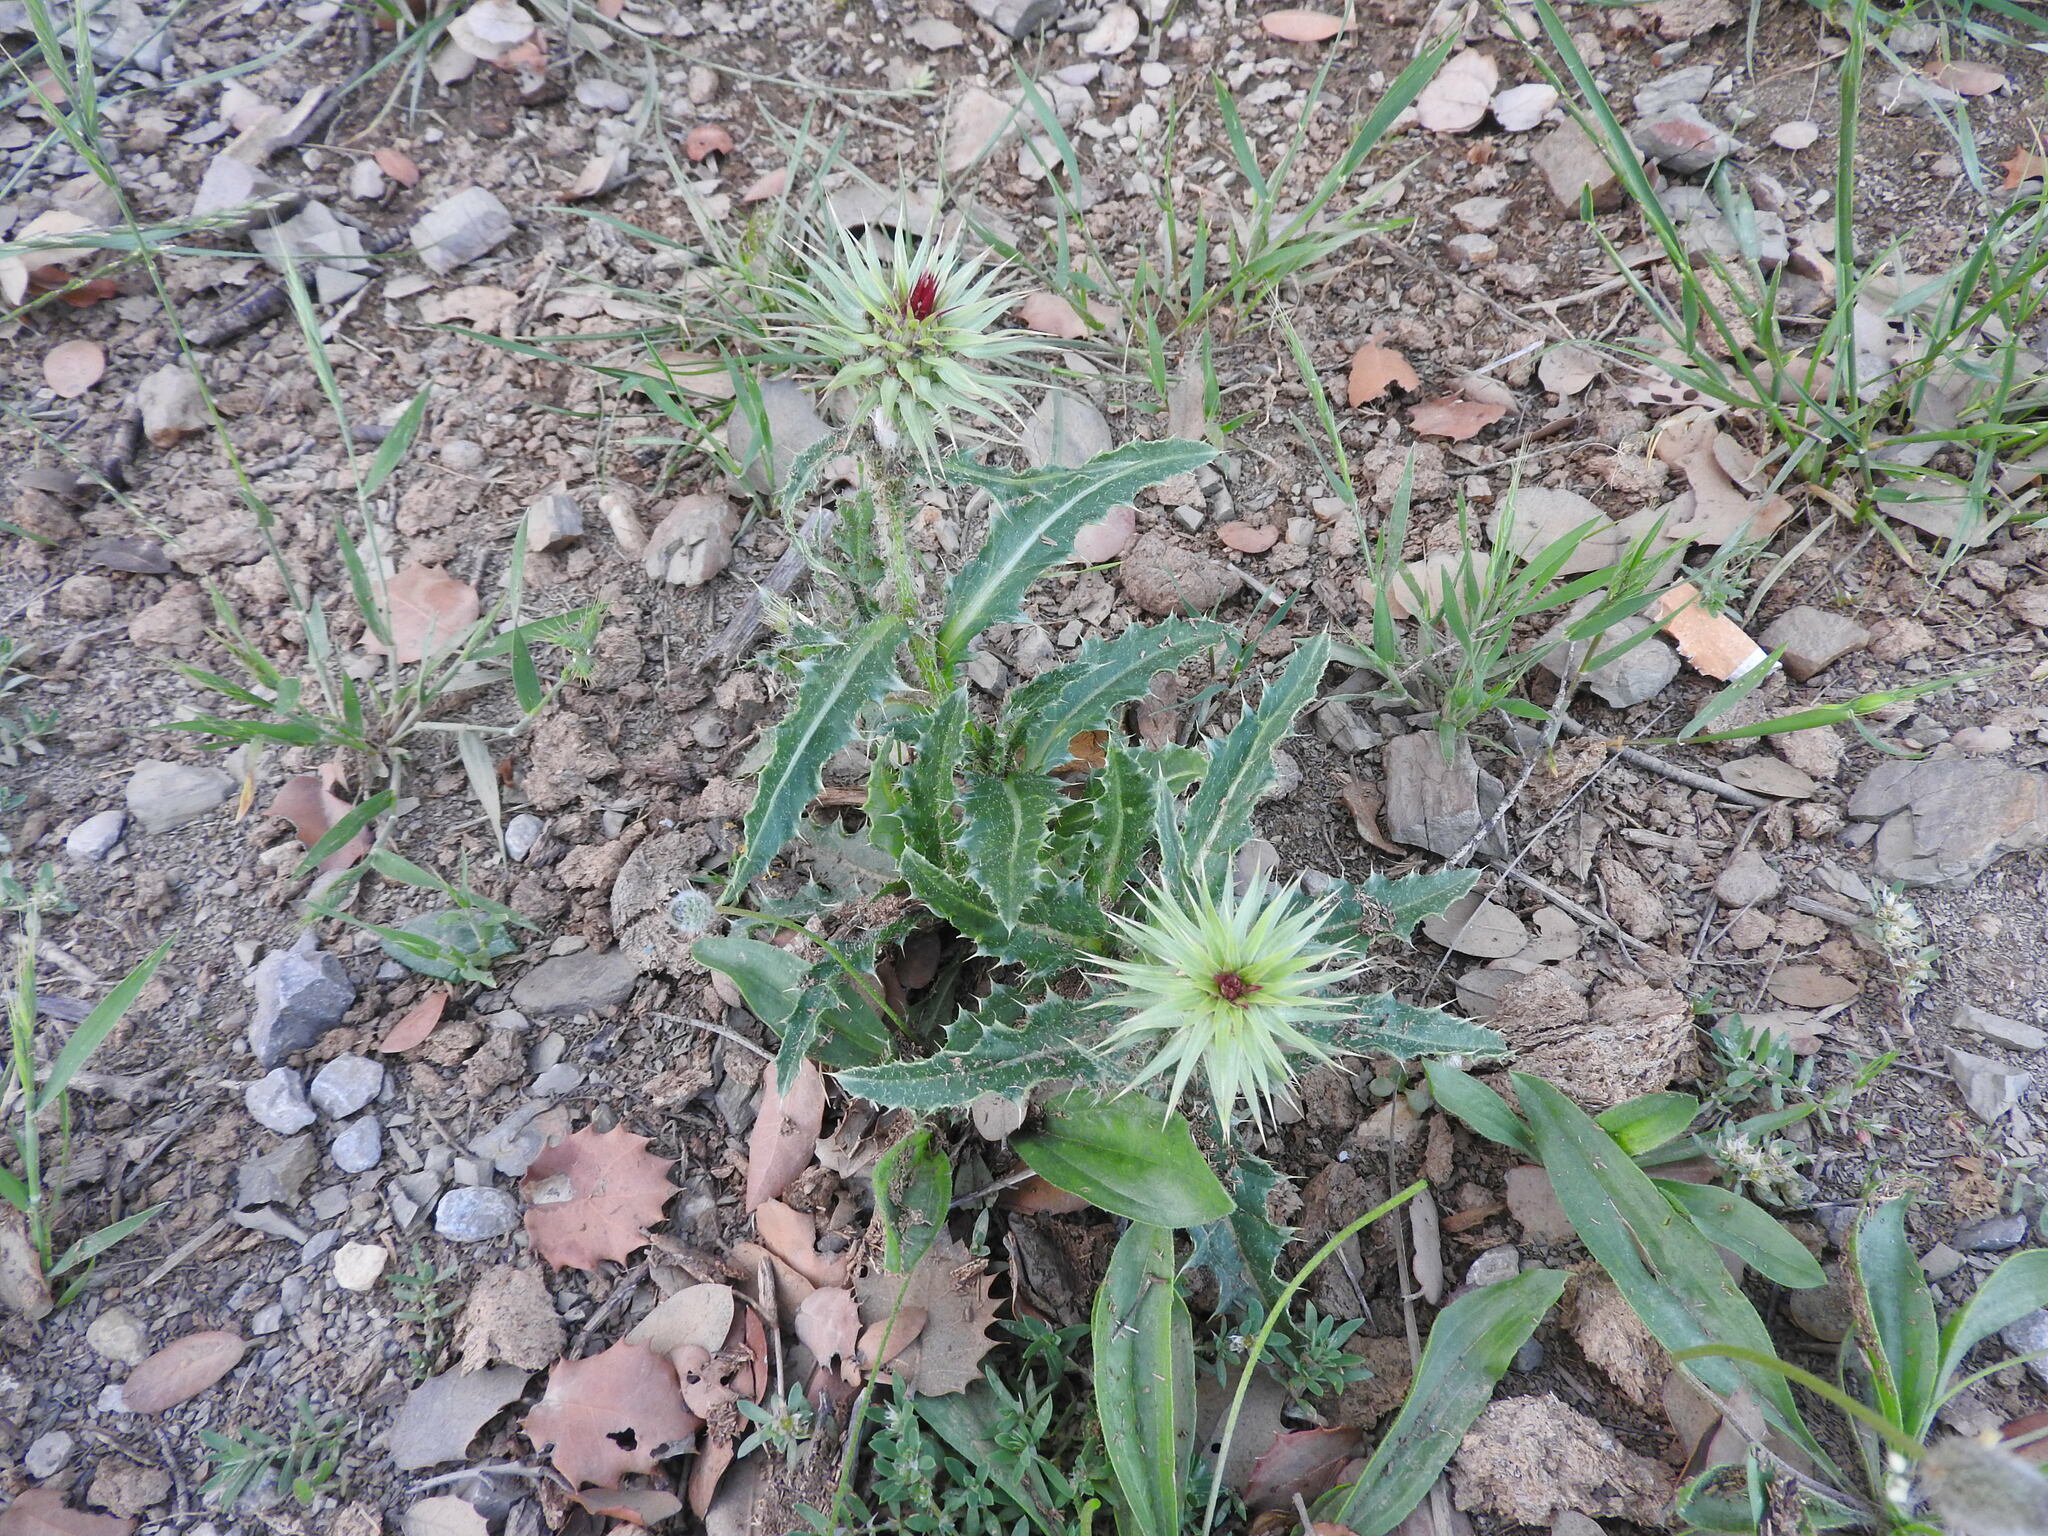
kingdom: Plantae
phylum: Tracheophyta
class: Magnoliopsida
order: Asterales
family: Asteraceae
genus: Carduus
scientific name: Carduus macrocephalus
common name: Giant thistle
